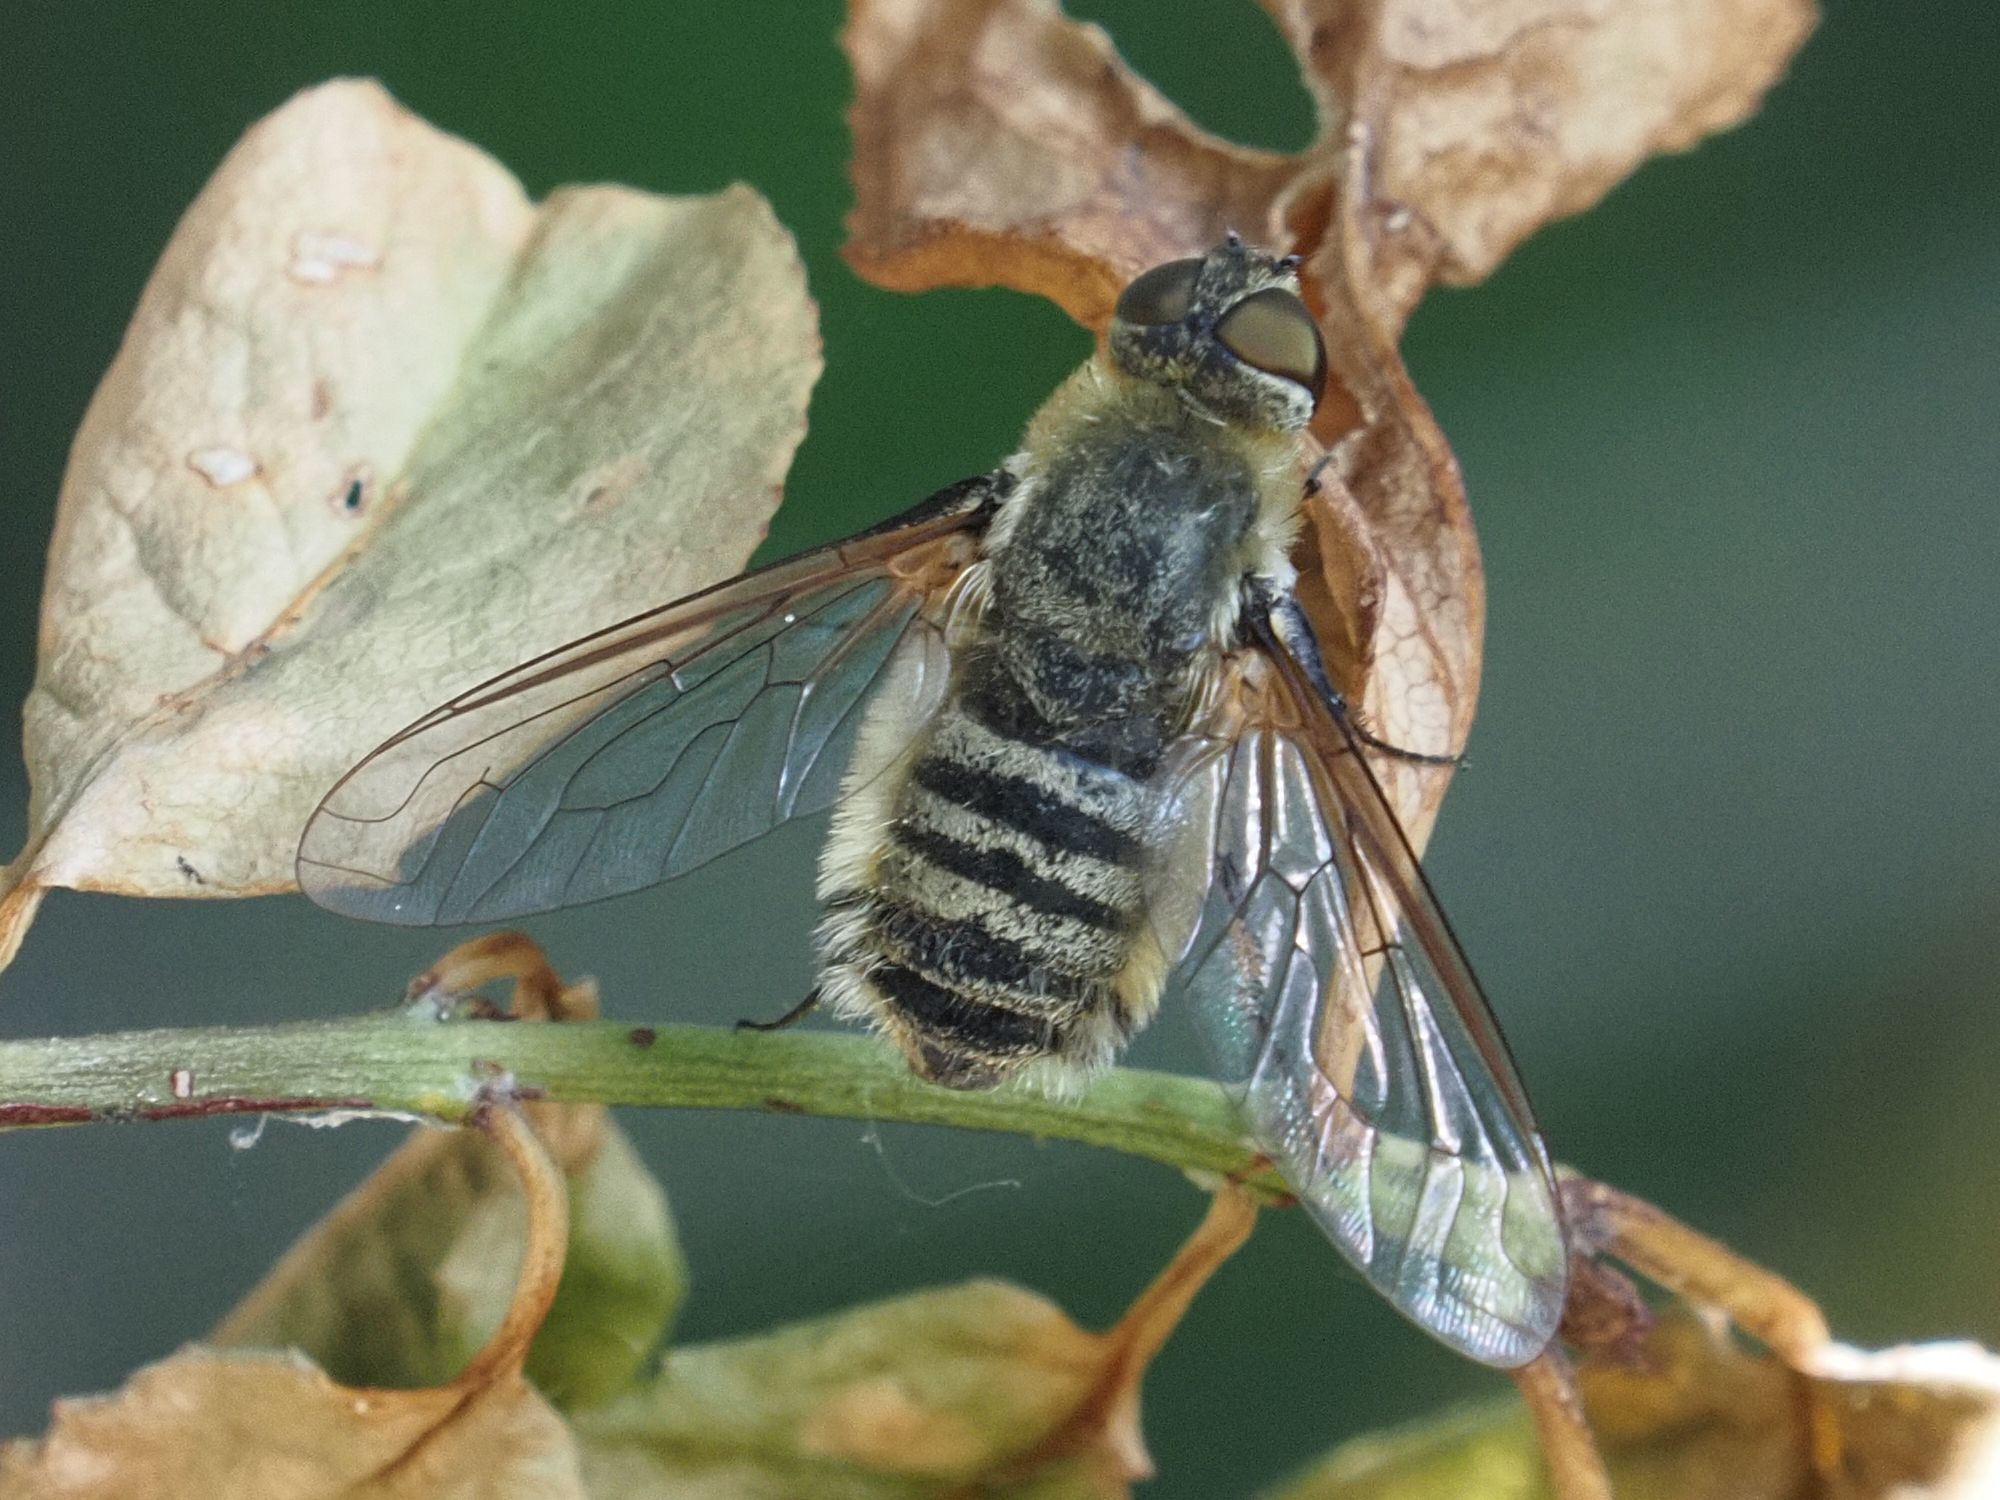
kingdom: Animalia
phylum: Arthropoda
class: Insecta
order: Diptera
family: Bombyliidae
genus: Villa
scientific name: Villa hottentotta
